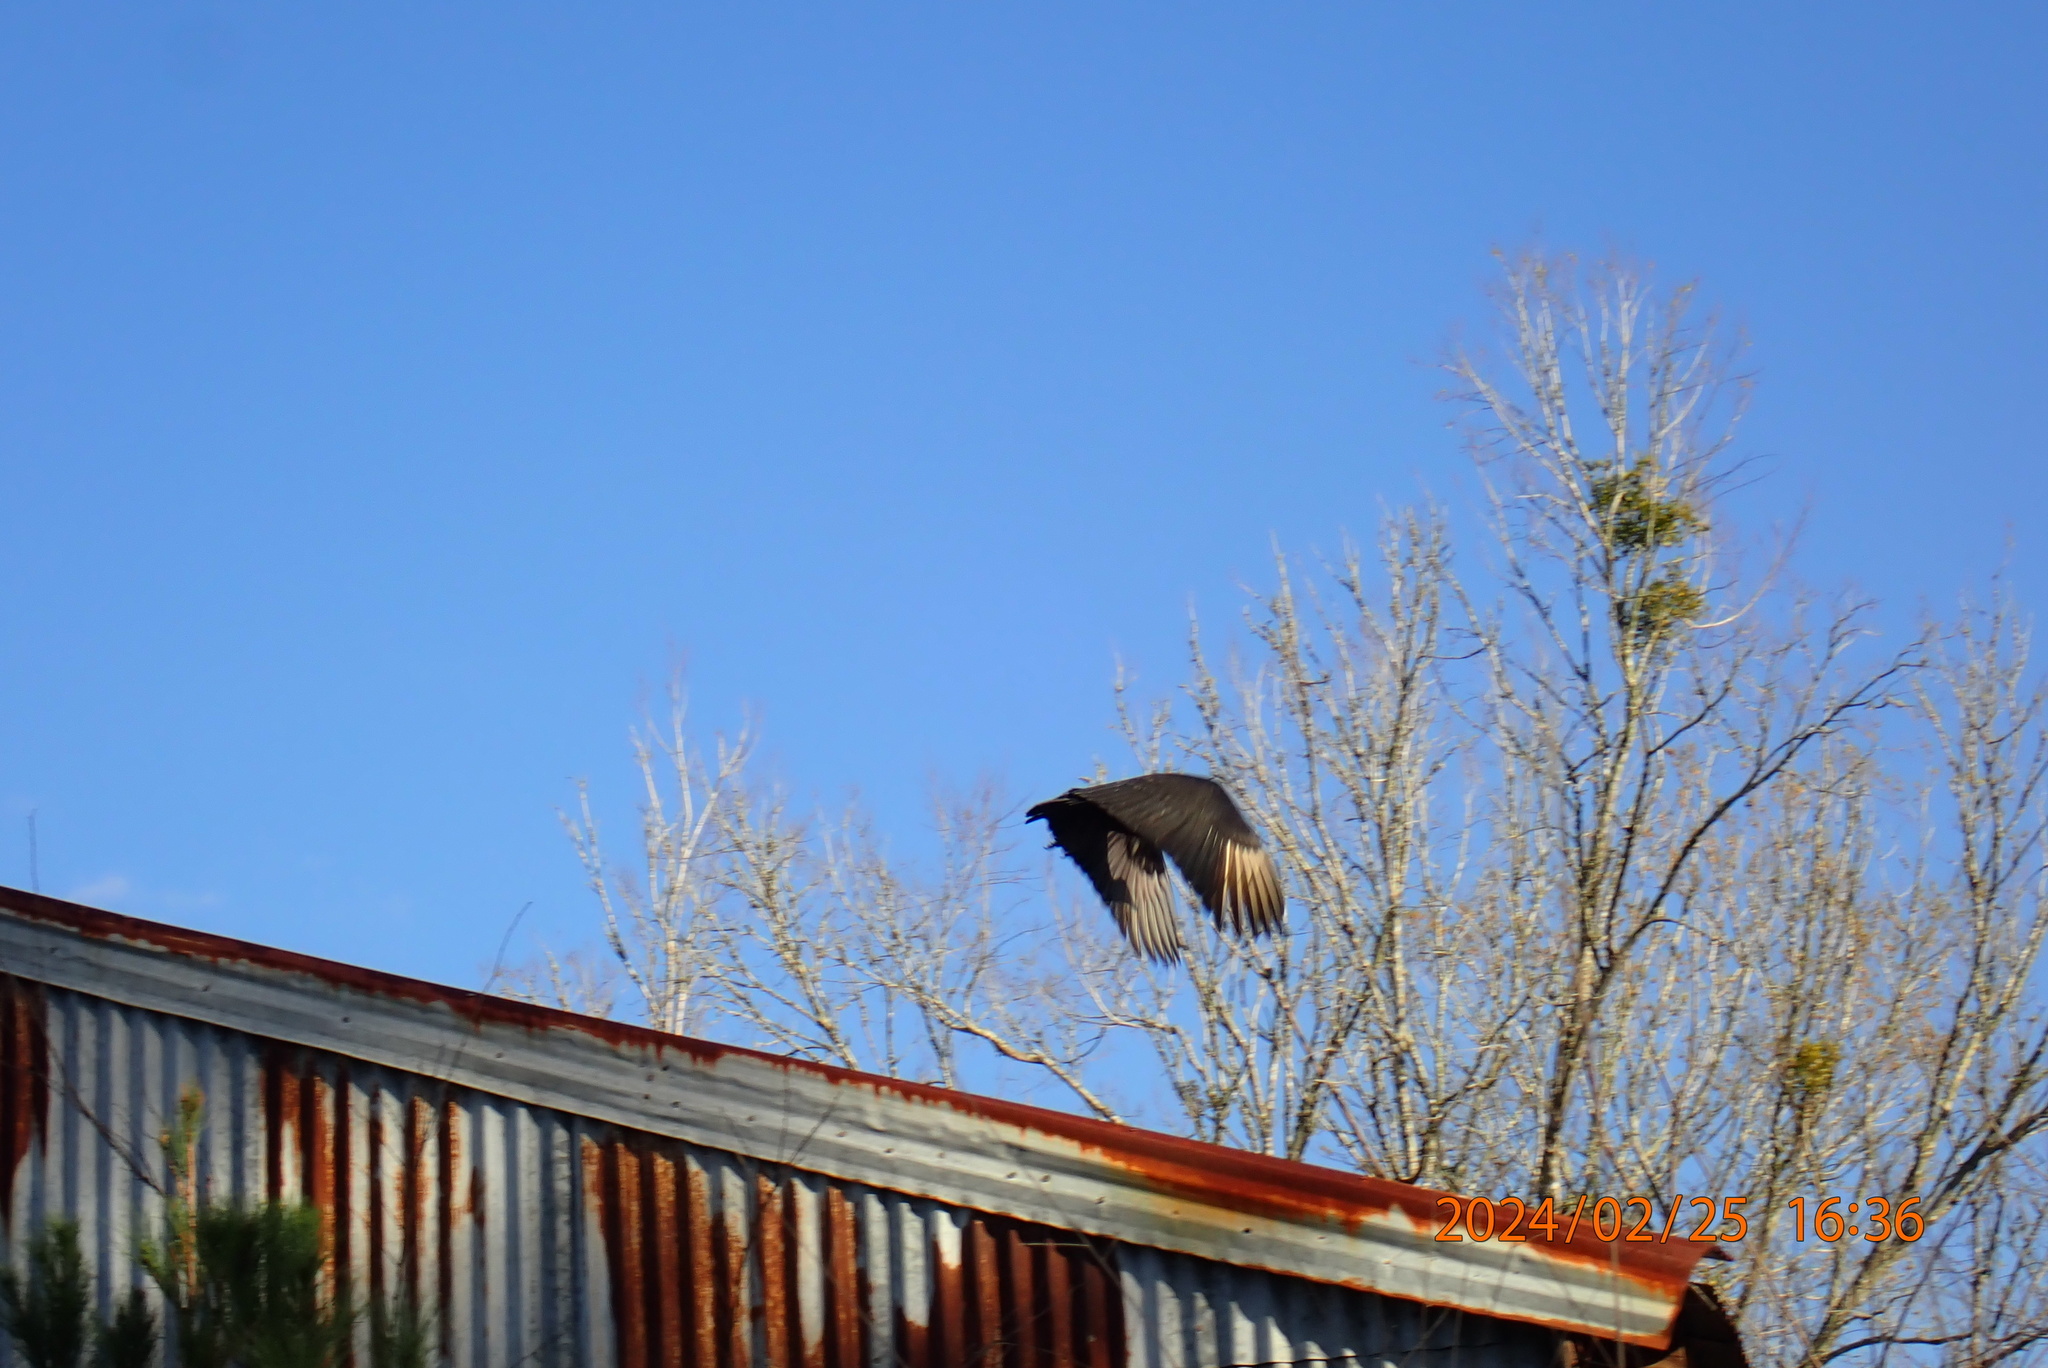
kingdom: Animalia
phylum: Chordata
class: Aves
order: Accipitriformes
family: Cathartidae
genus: Coragyps
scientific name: Coragyps atratus
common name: Black vulture
